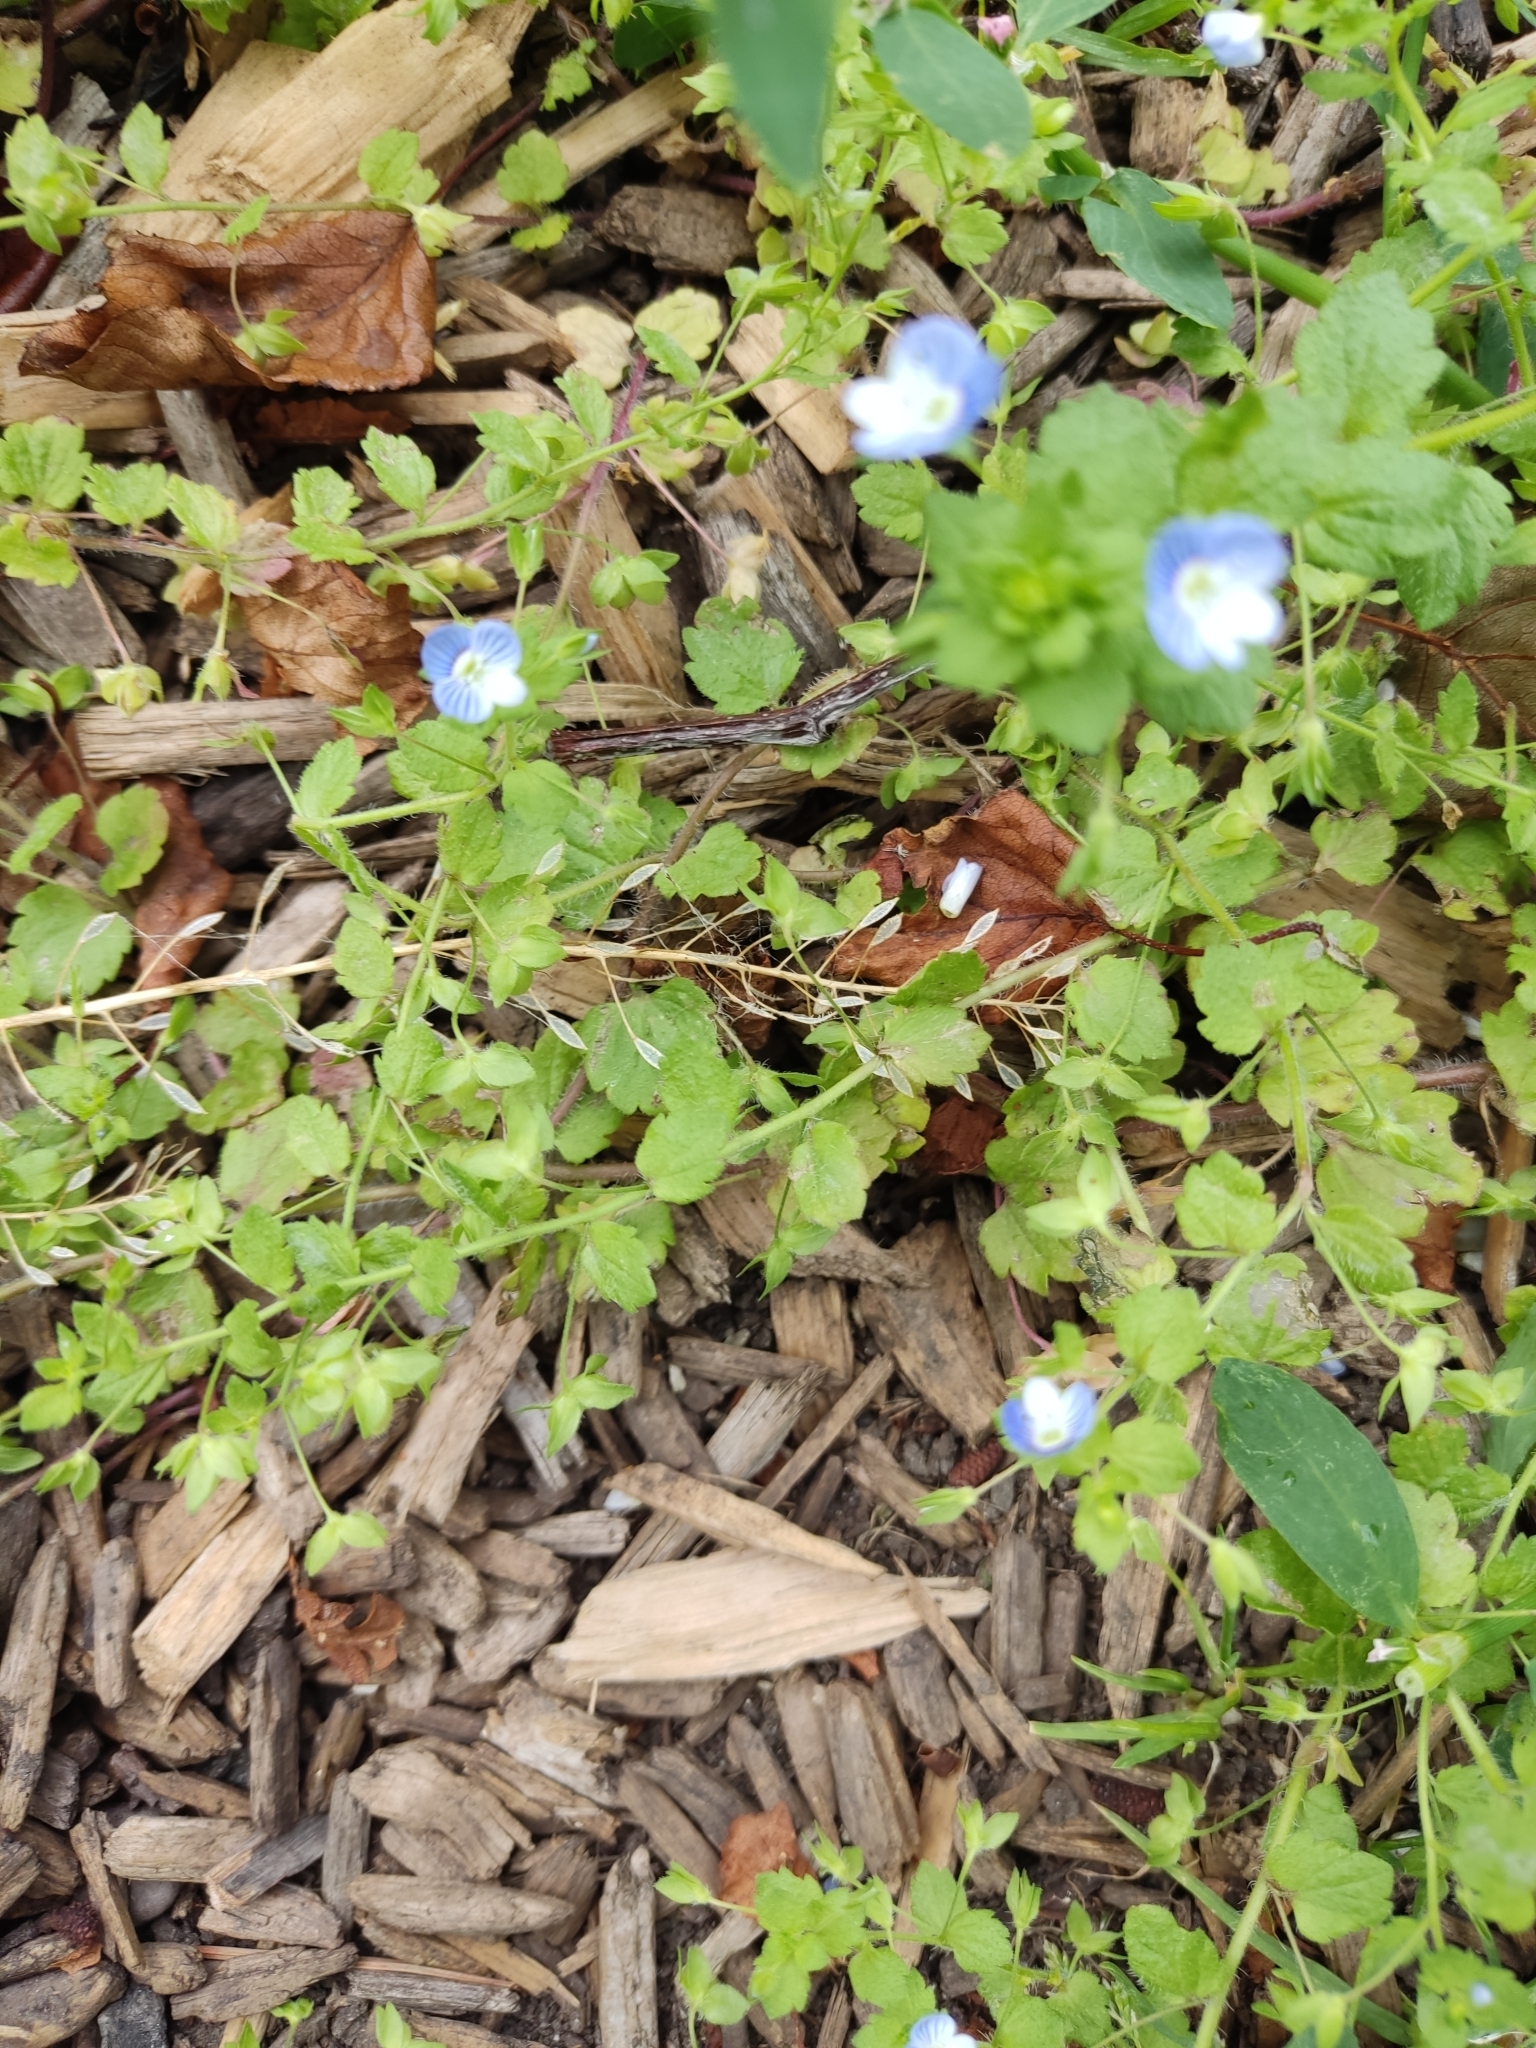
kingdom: Plantae
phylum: Tracheophyta
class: Magnoliopsida
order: Lamiales
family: Plantaginaceae
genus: Veronica
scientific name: Veronica persica
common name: Common field-speedwell
